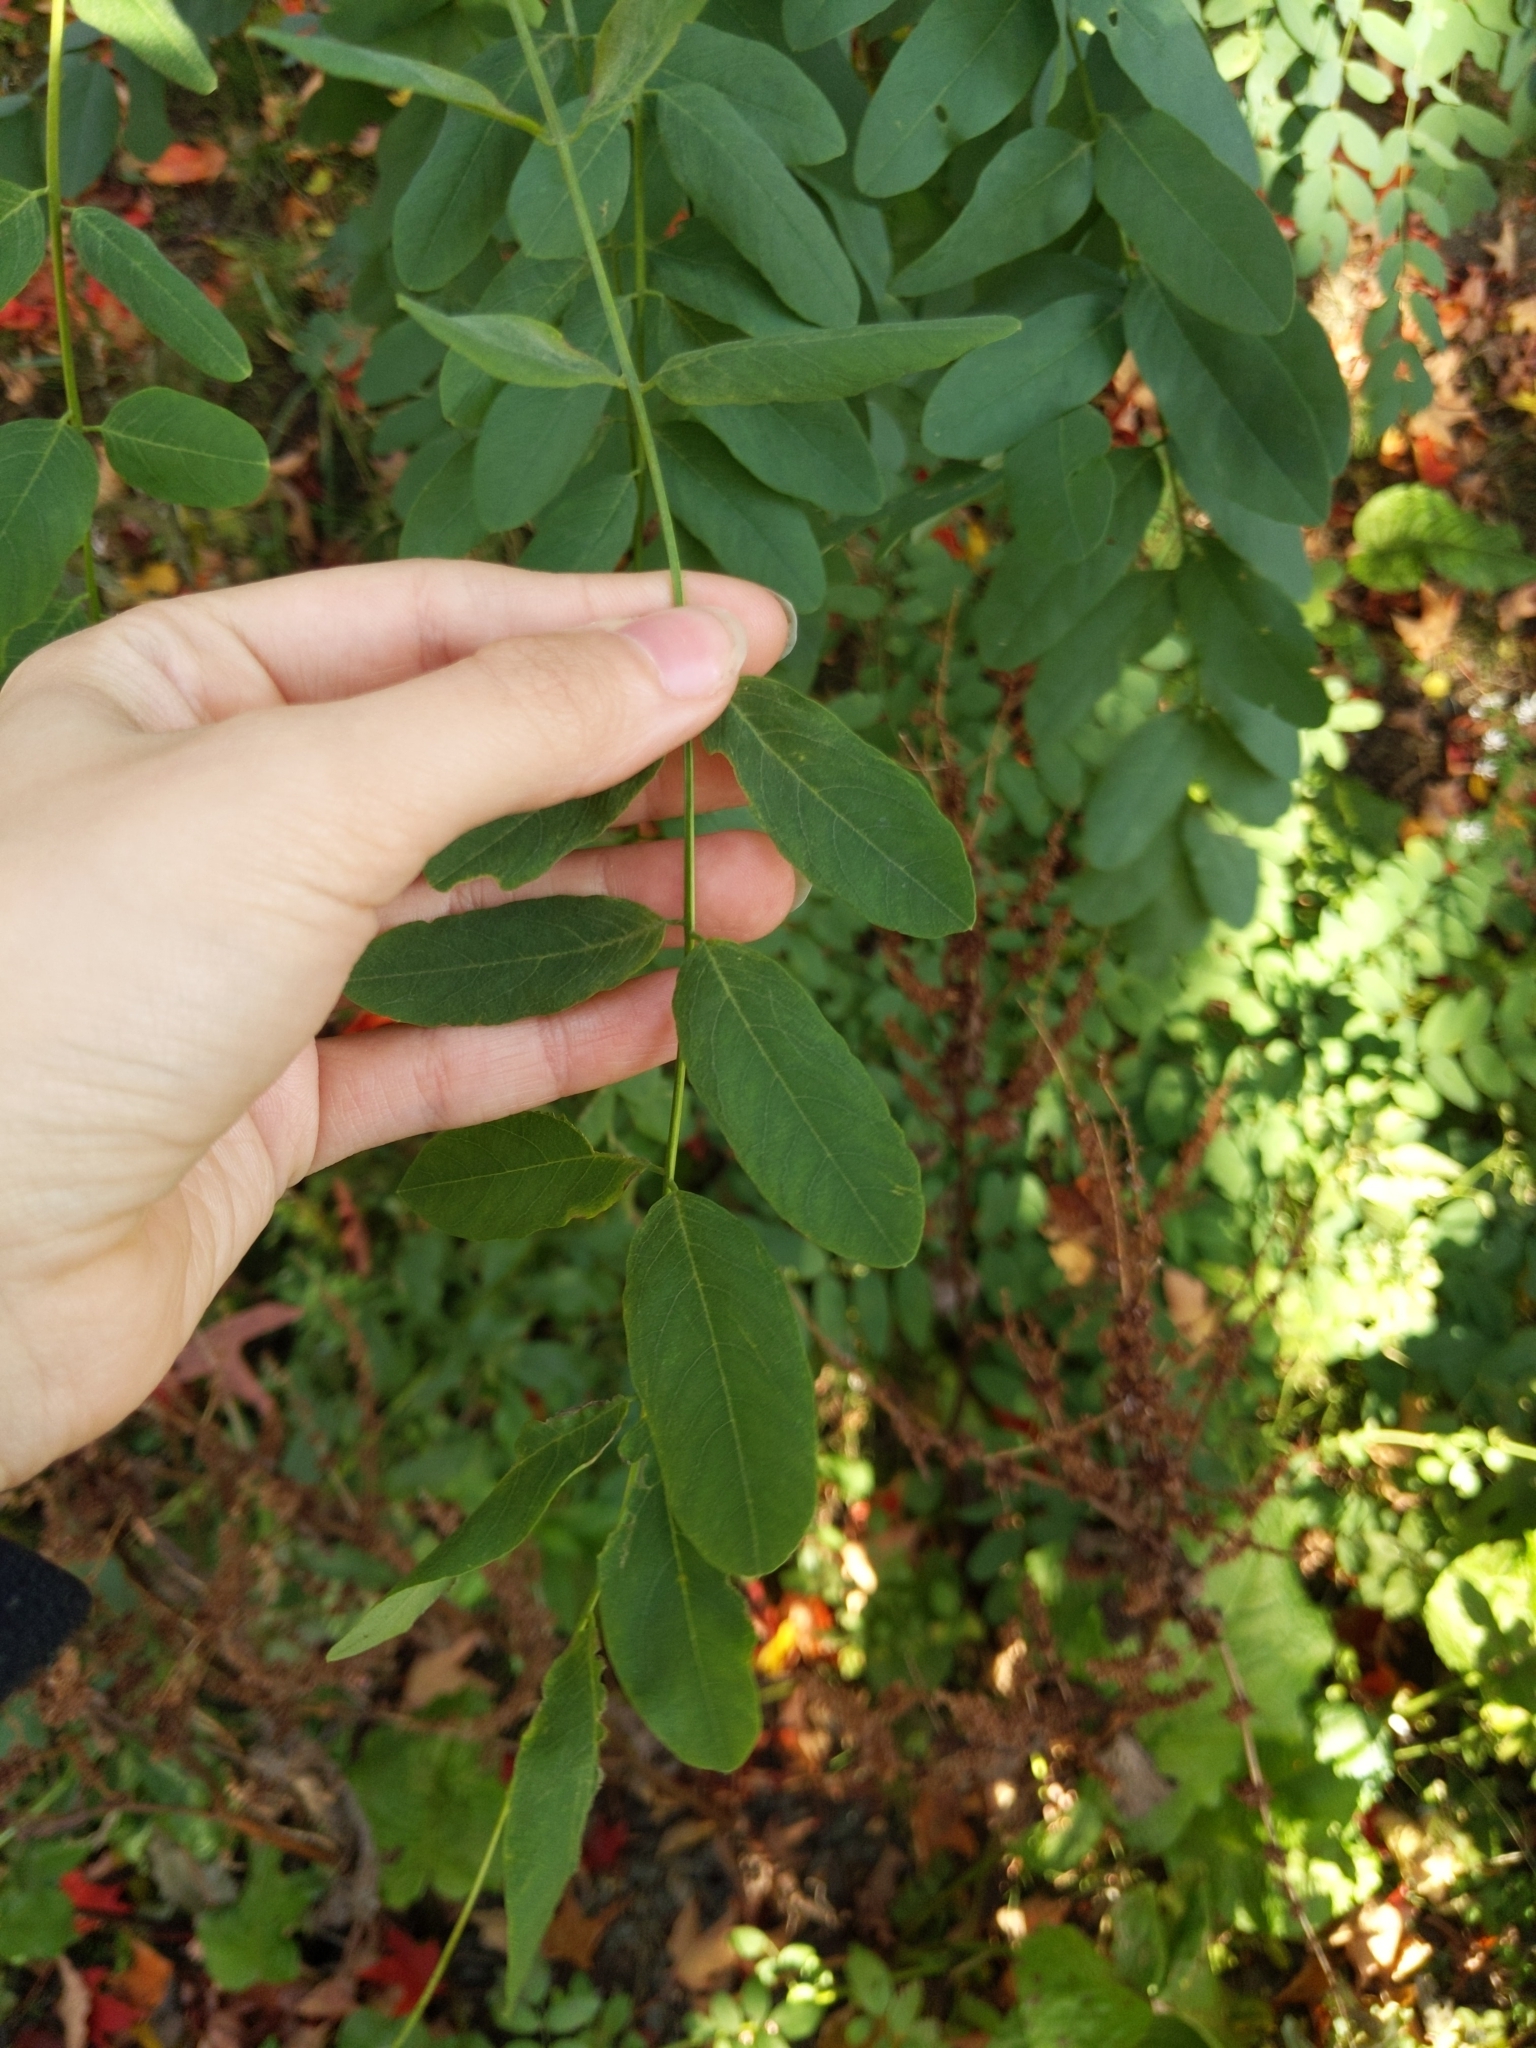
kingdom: Plantae
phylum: Tracheophyta
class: Magnoliopsida
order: Fabales
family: Fabaceae
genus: Robinia
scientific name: Robinia pseudoacacia
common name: Black locust
